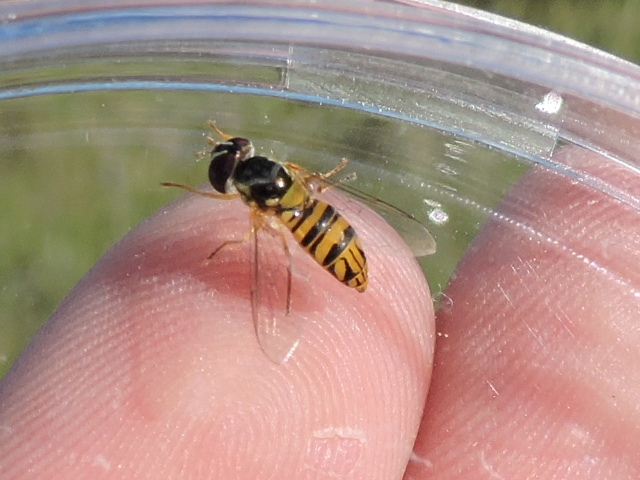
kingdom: Animalia
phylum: Arthropoda
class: Insecta
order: Diptera
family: Syrphidae
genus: Allograpta
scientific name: Allograpta obliqua
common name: Common oblique syrphid
